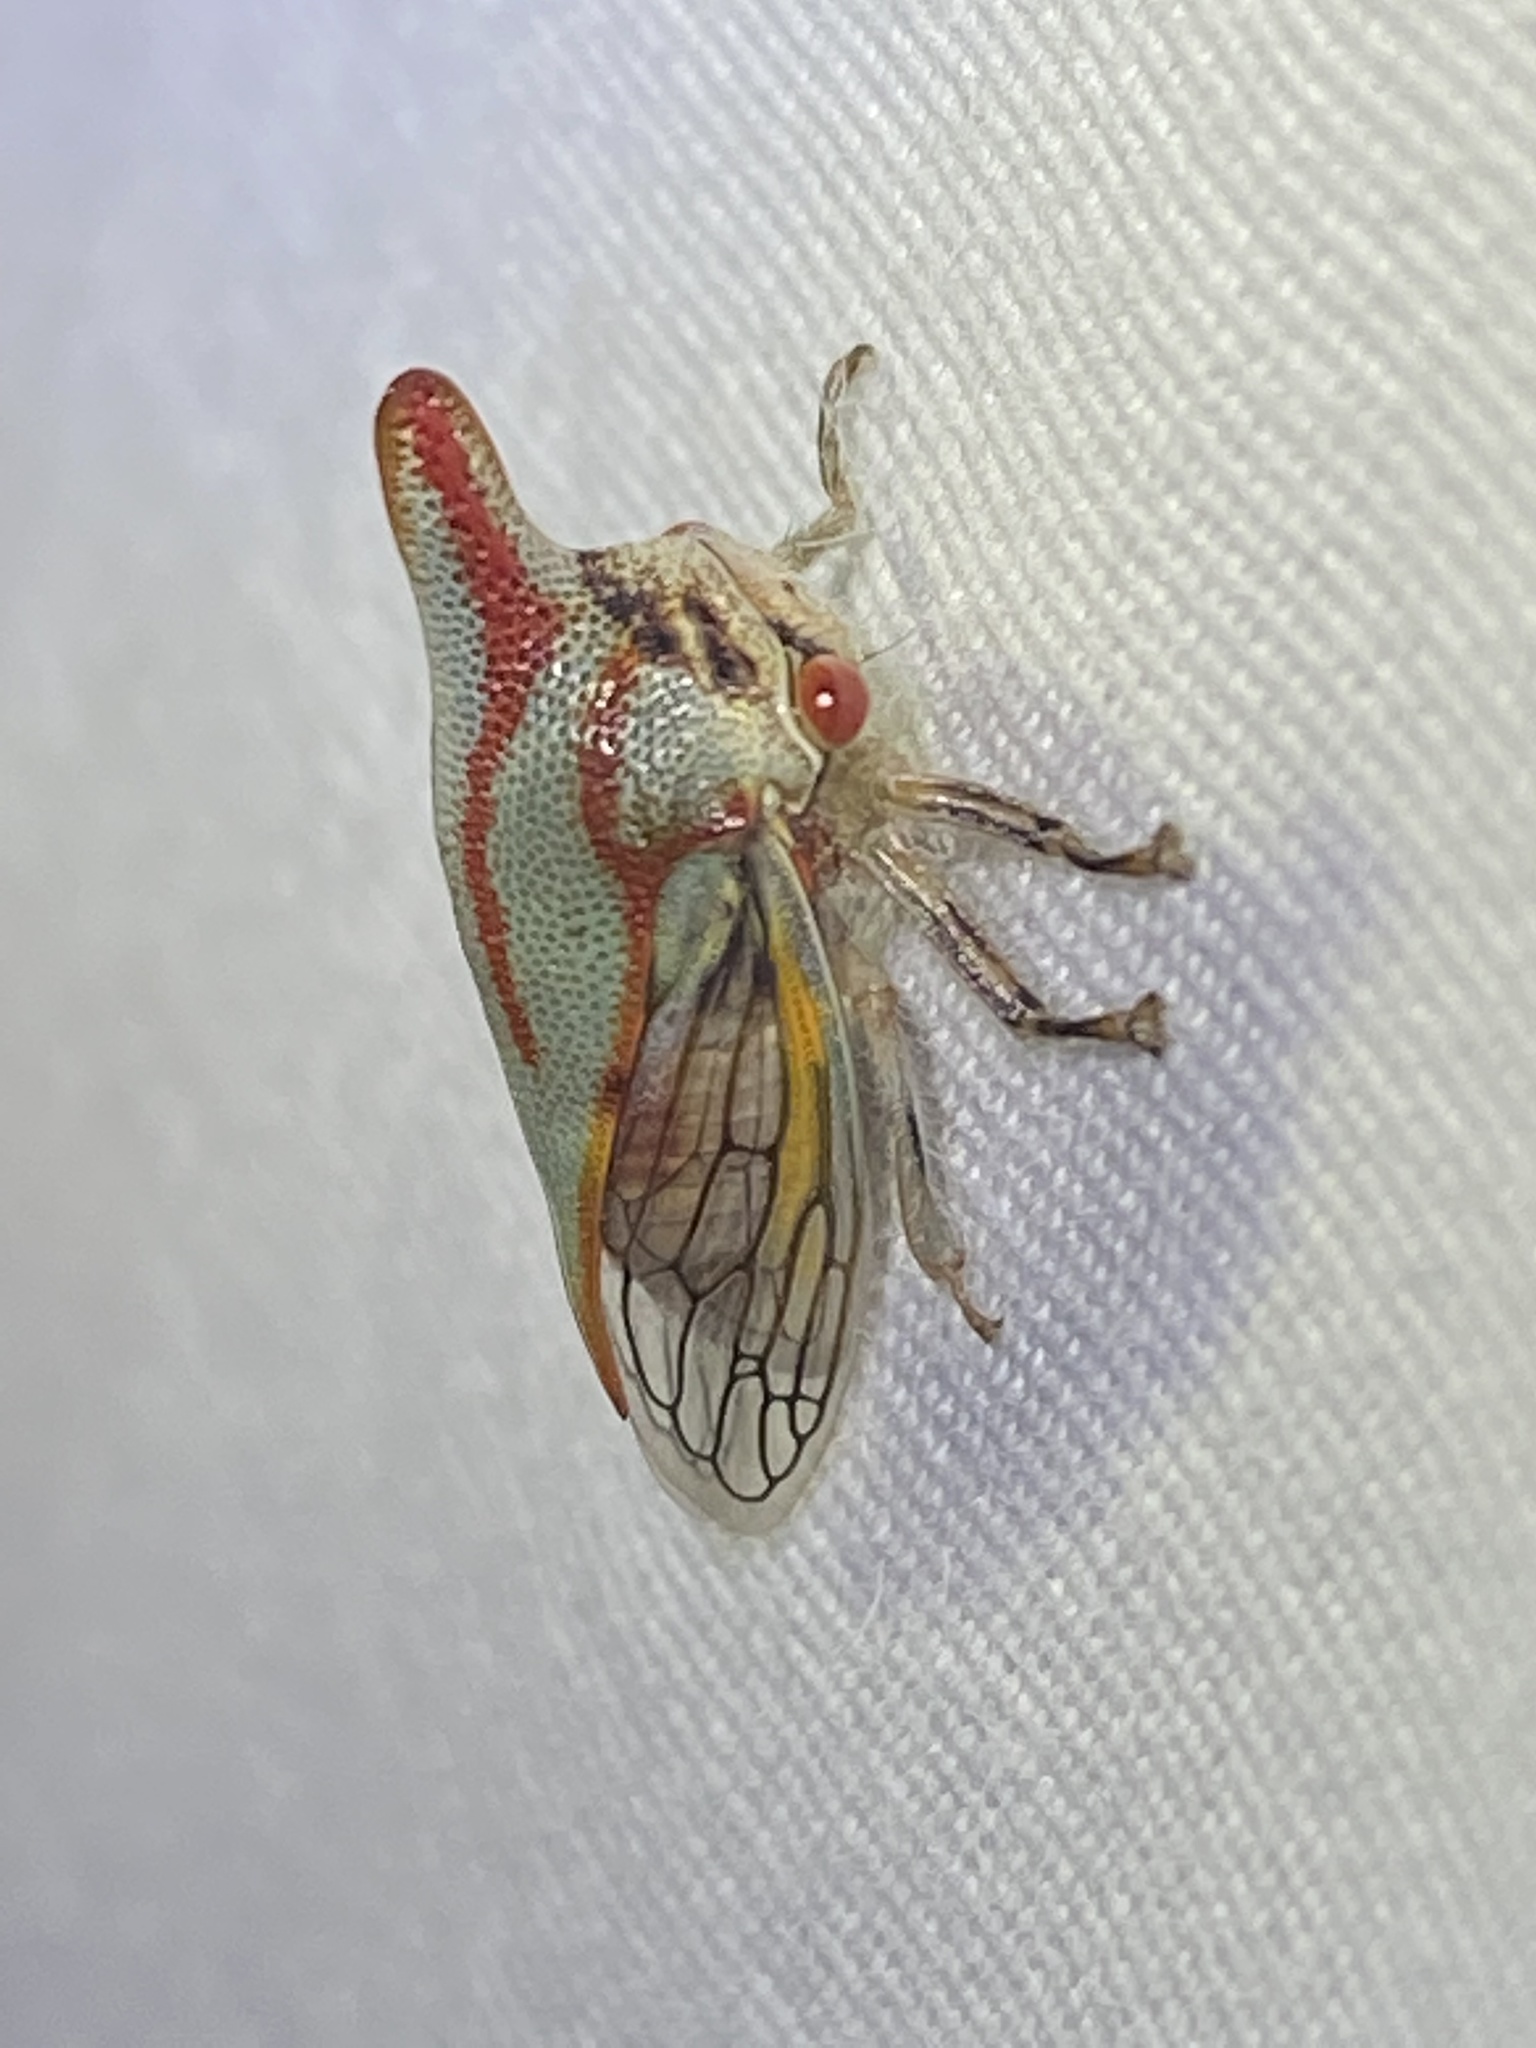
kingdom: Animalia
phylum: Arthropoda
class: Insecta
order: Hemiptera
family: Membracidae
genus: Platycotis
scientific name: Platycotis vittatus
